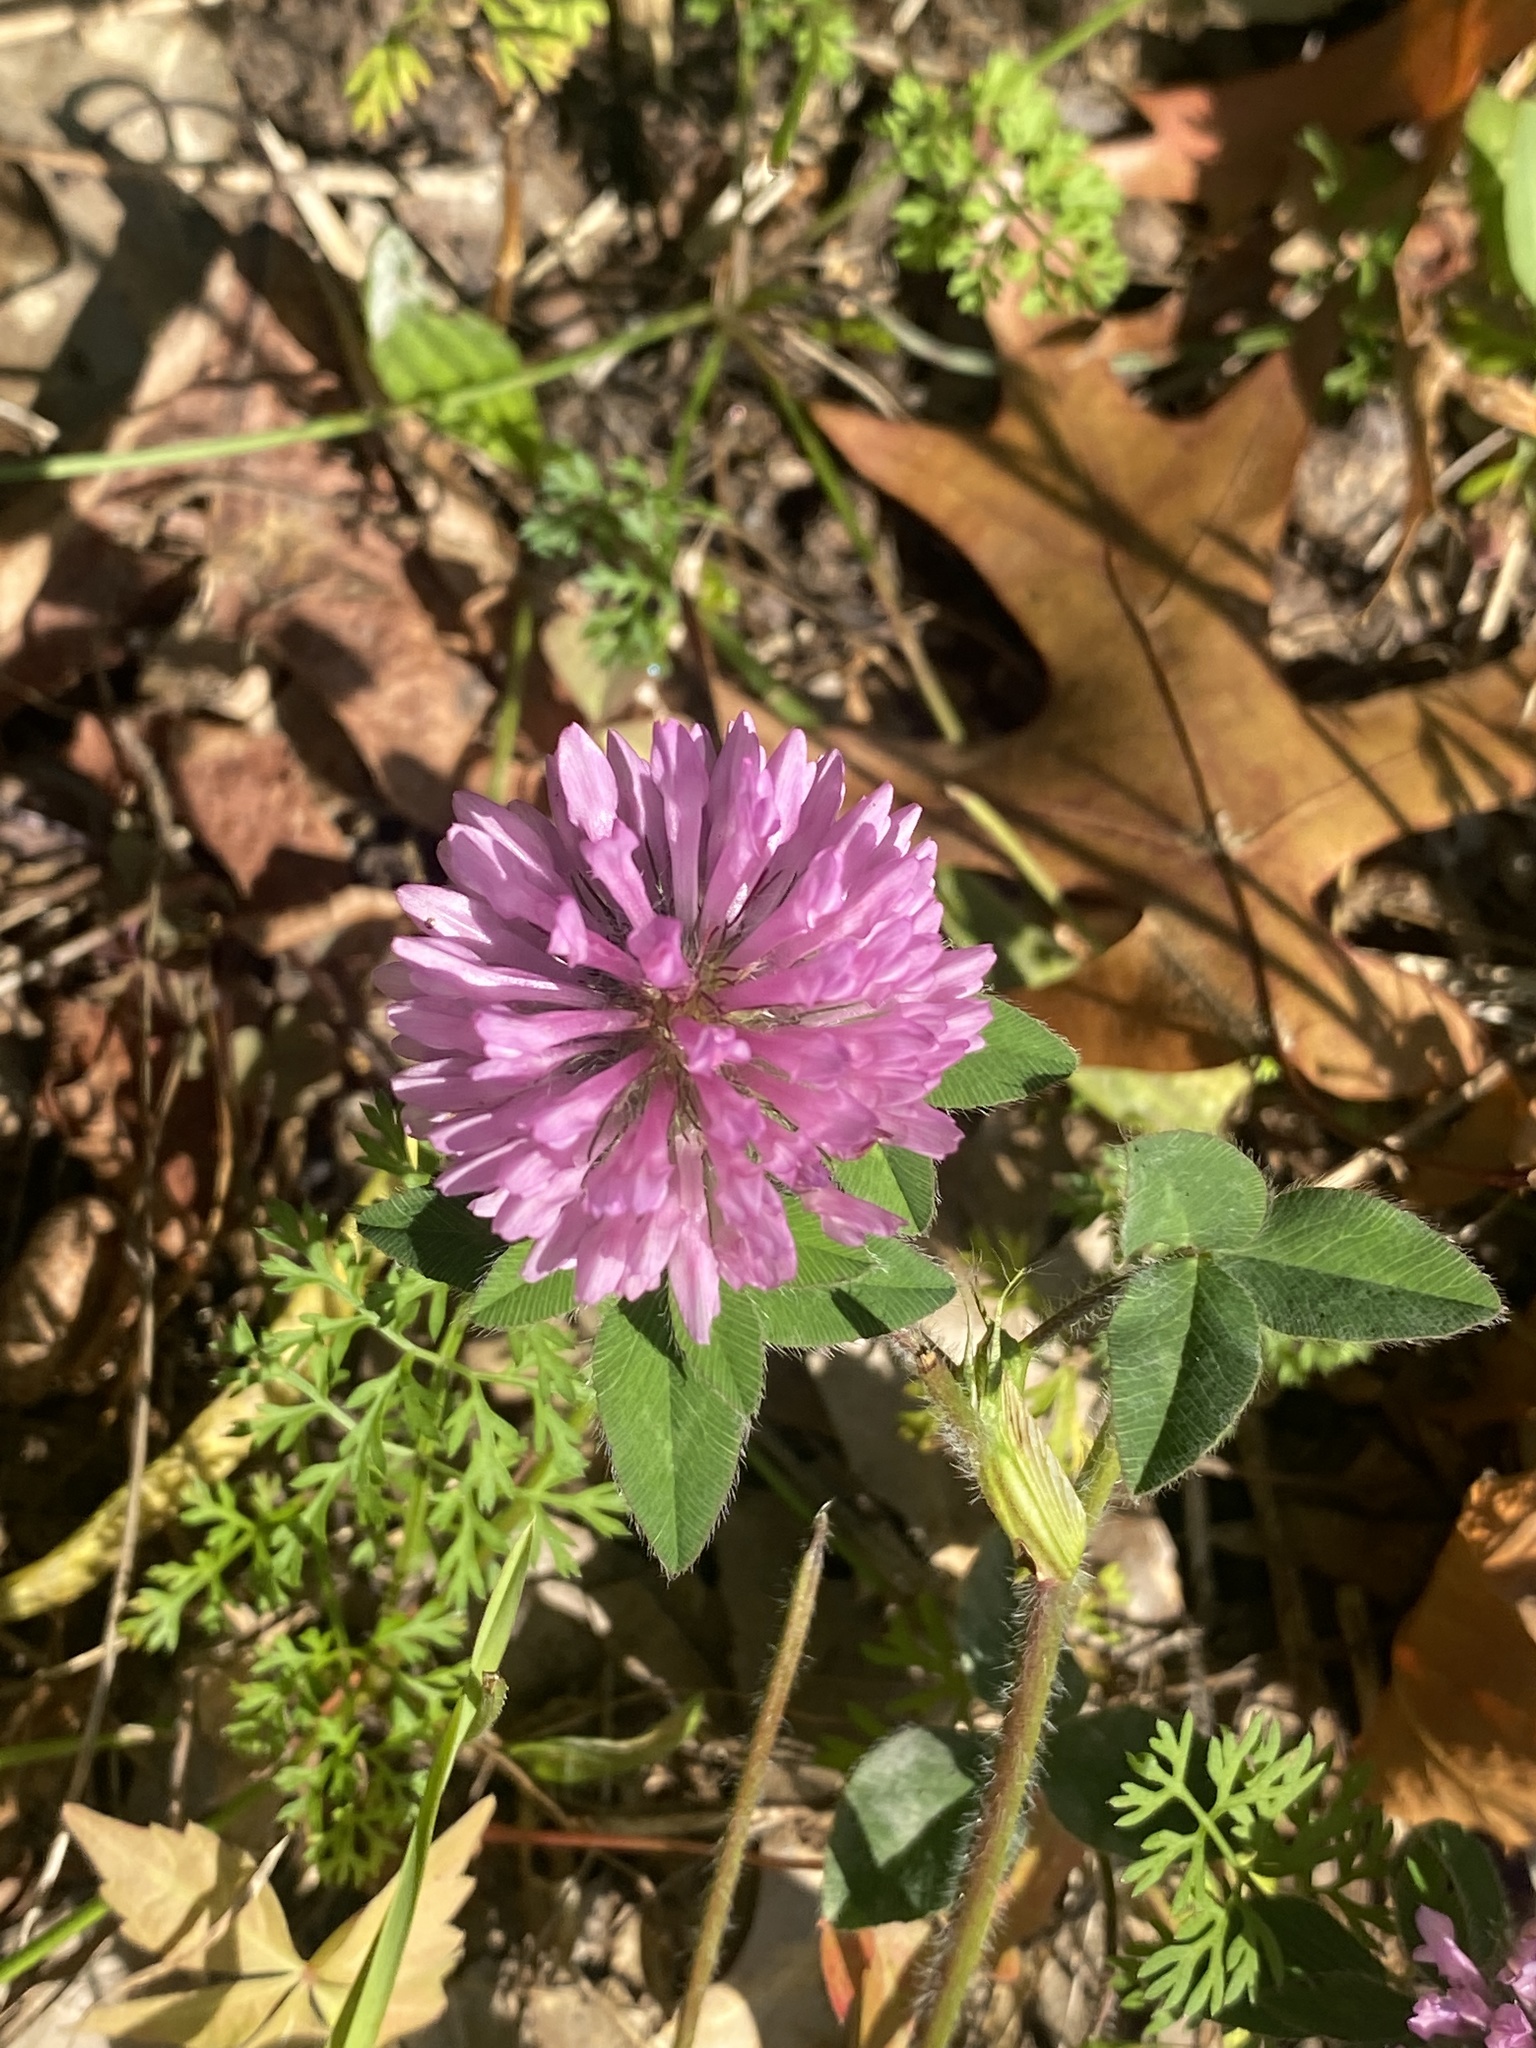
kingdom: Plantae
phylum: Tracheophyta
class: Magnoliopsida
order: Fabales
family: Fabaceae
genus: Trifolium
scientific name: Trifolium pratense
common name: Red clover
